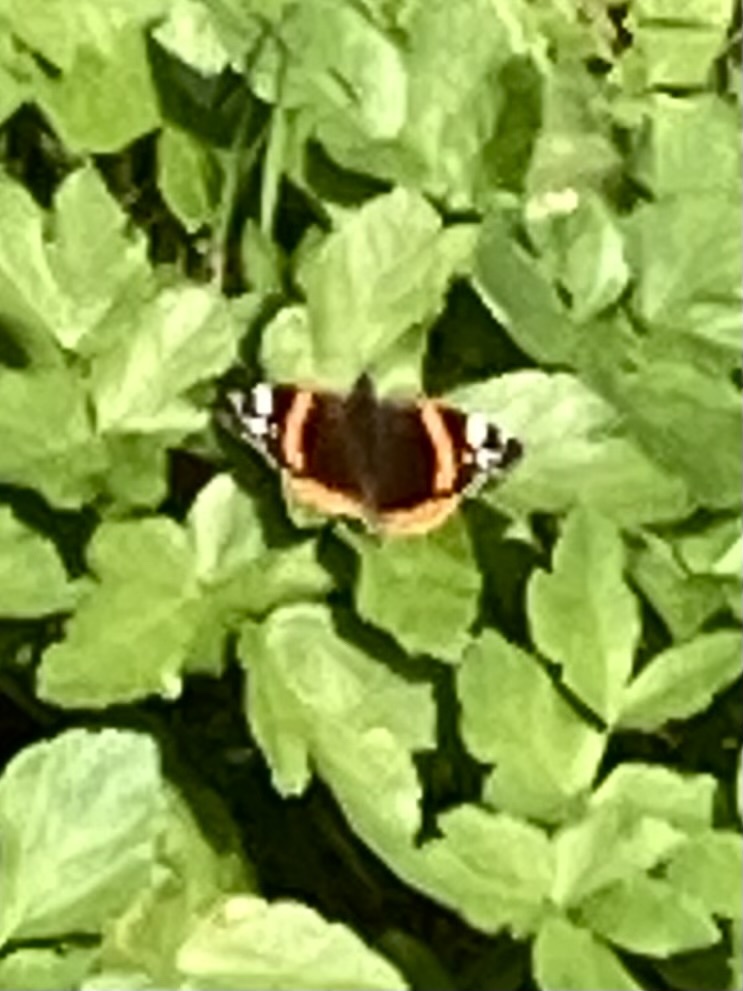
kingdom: Animalia
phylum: Arthropoda
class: Insecta
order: Lepidoptera
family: Nymphalidae
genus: Vanessa
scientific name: Vanessa atalanta
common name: Red admiral
